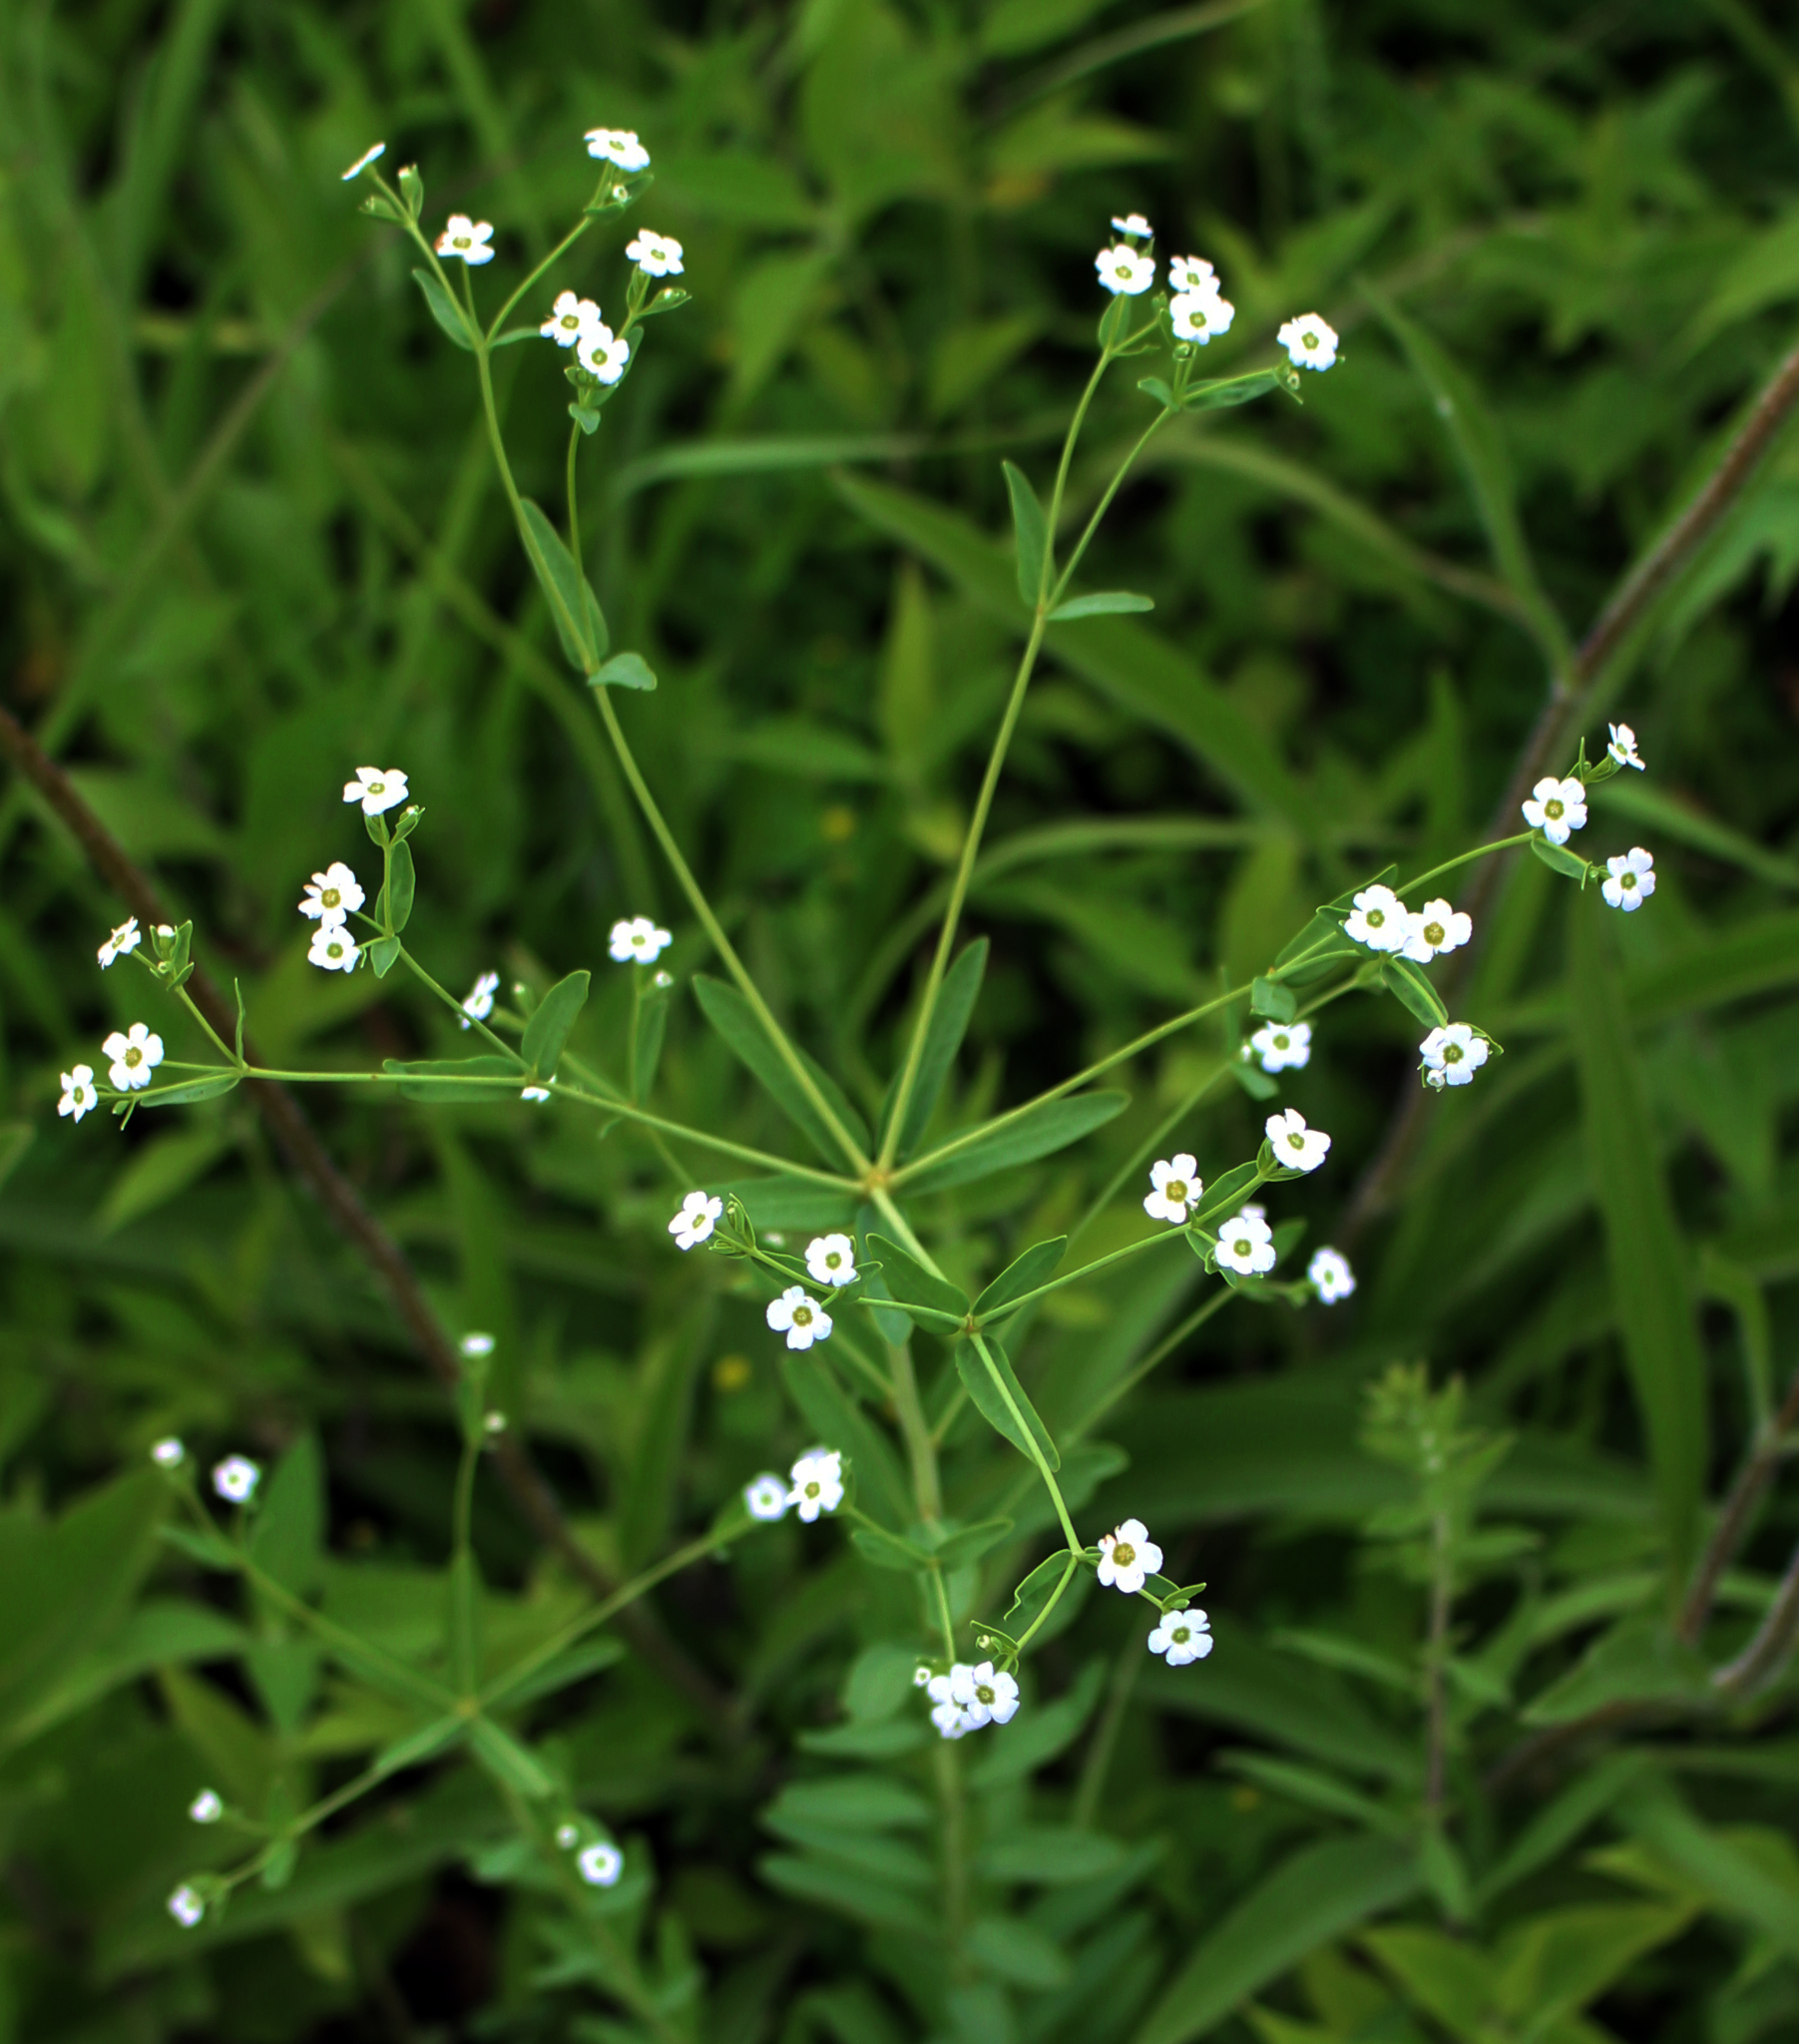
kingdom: Plantae
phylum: Tracheophyta
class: Magnoliopsida
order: Malpighiales
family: Euphorbiaceae
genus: Euphorbia
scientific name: Euphorbia corollata
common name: Flowering spurge
